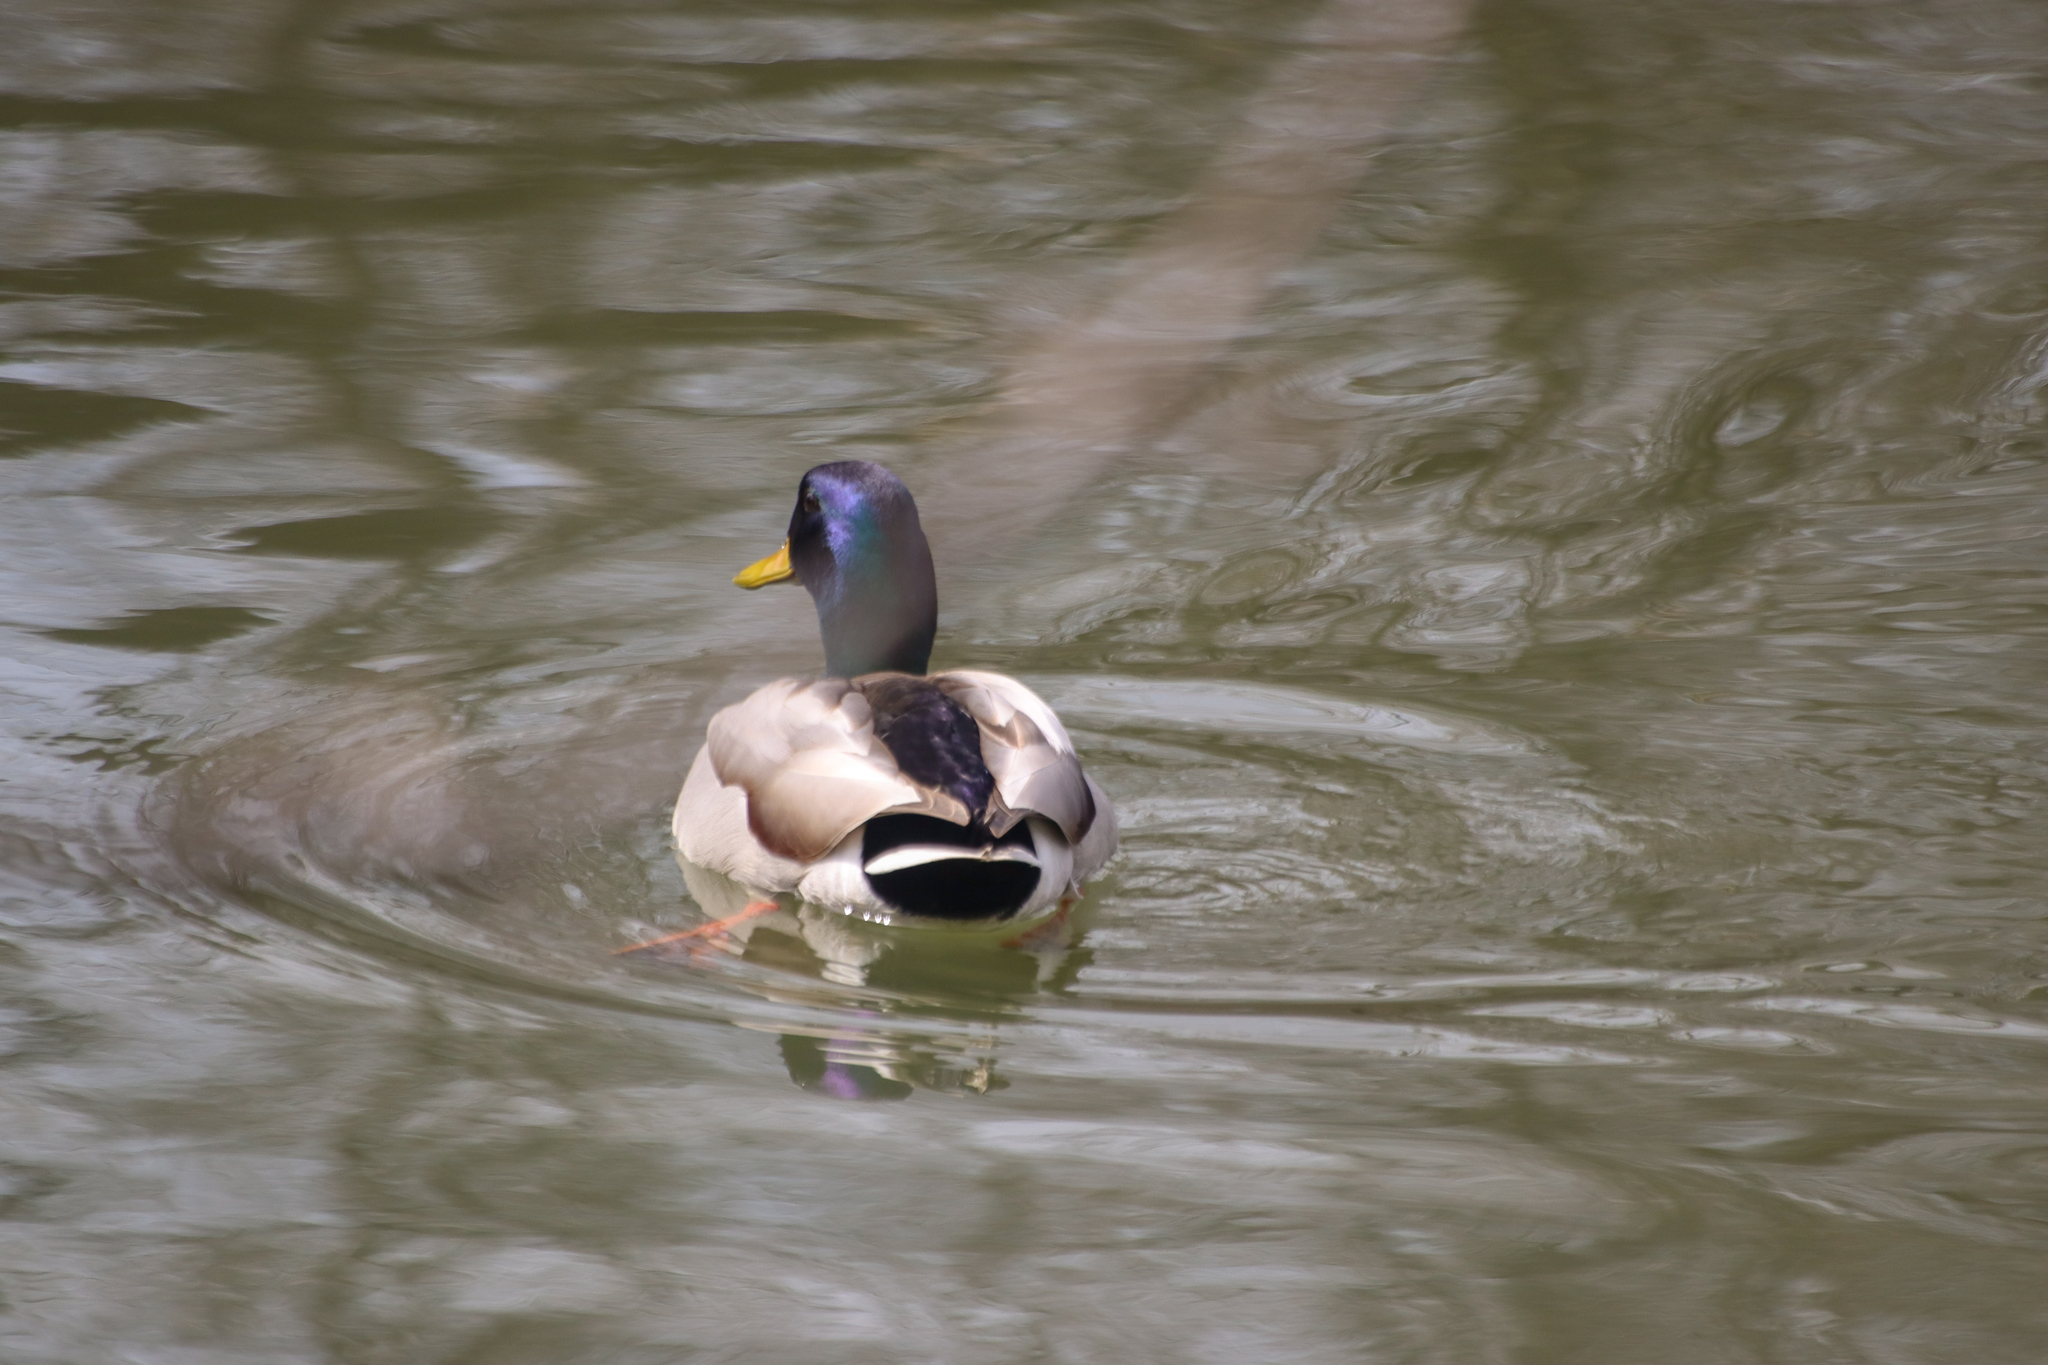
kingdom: Animalia
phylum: Chordata
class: Aves
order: Anseriformes
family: Anatidae
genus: Anas
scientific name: Anas platyrhynchos
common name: Mallard
